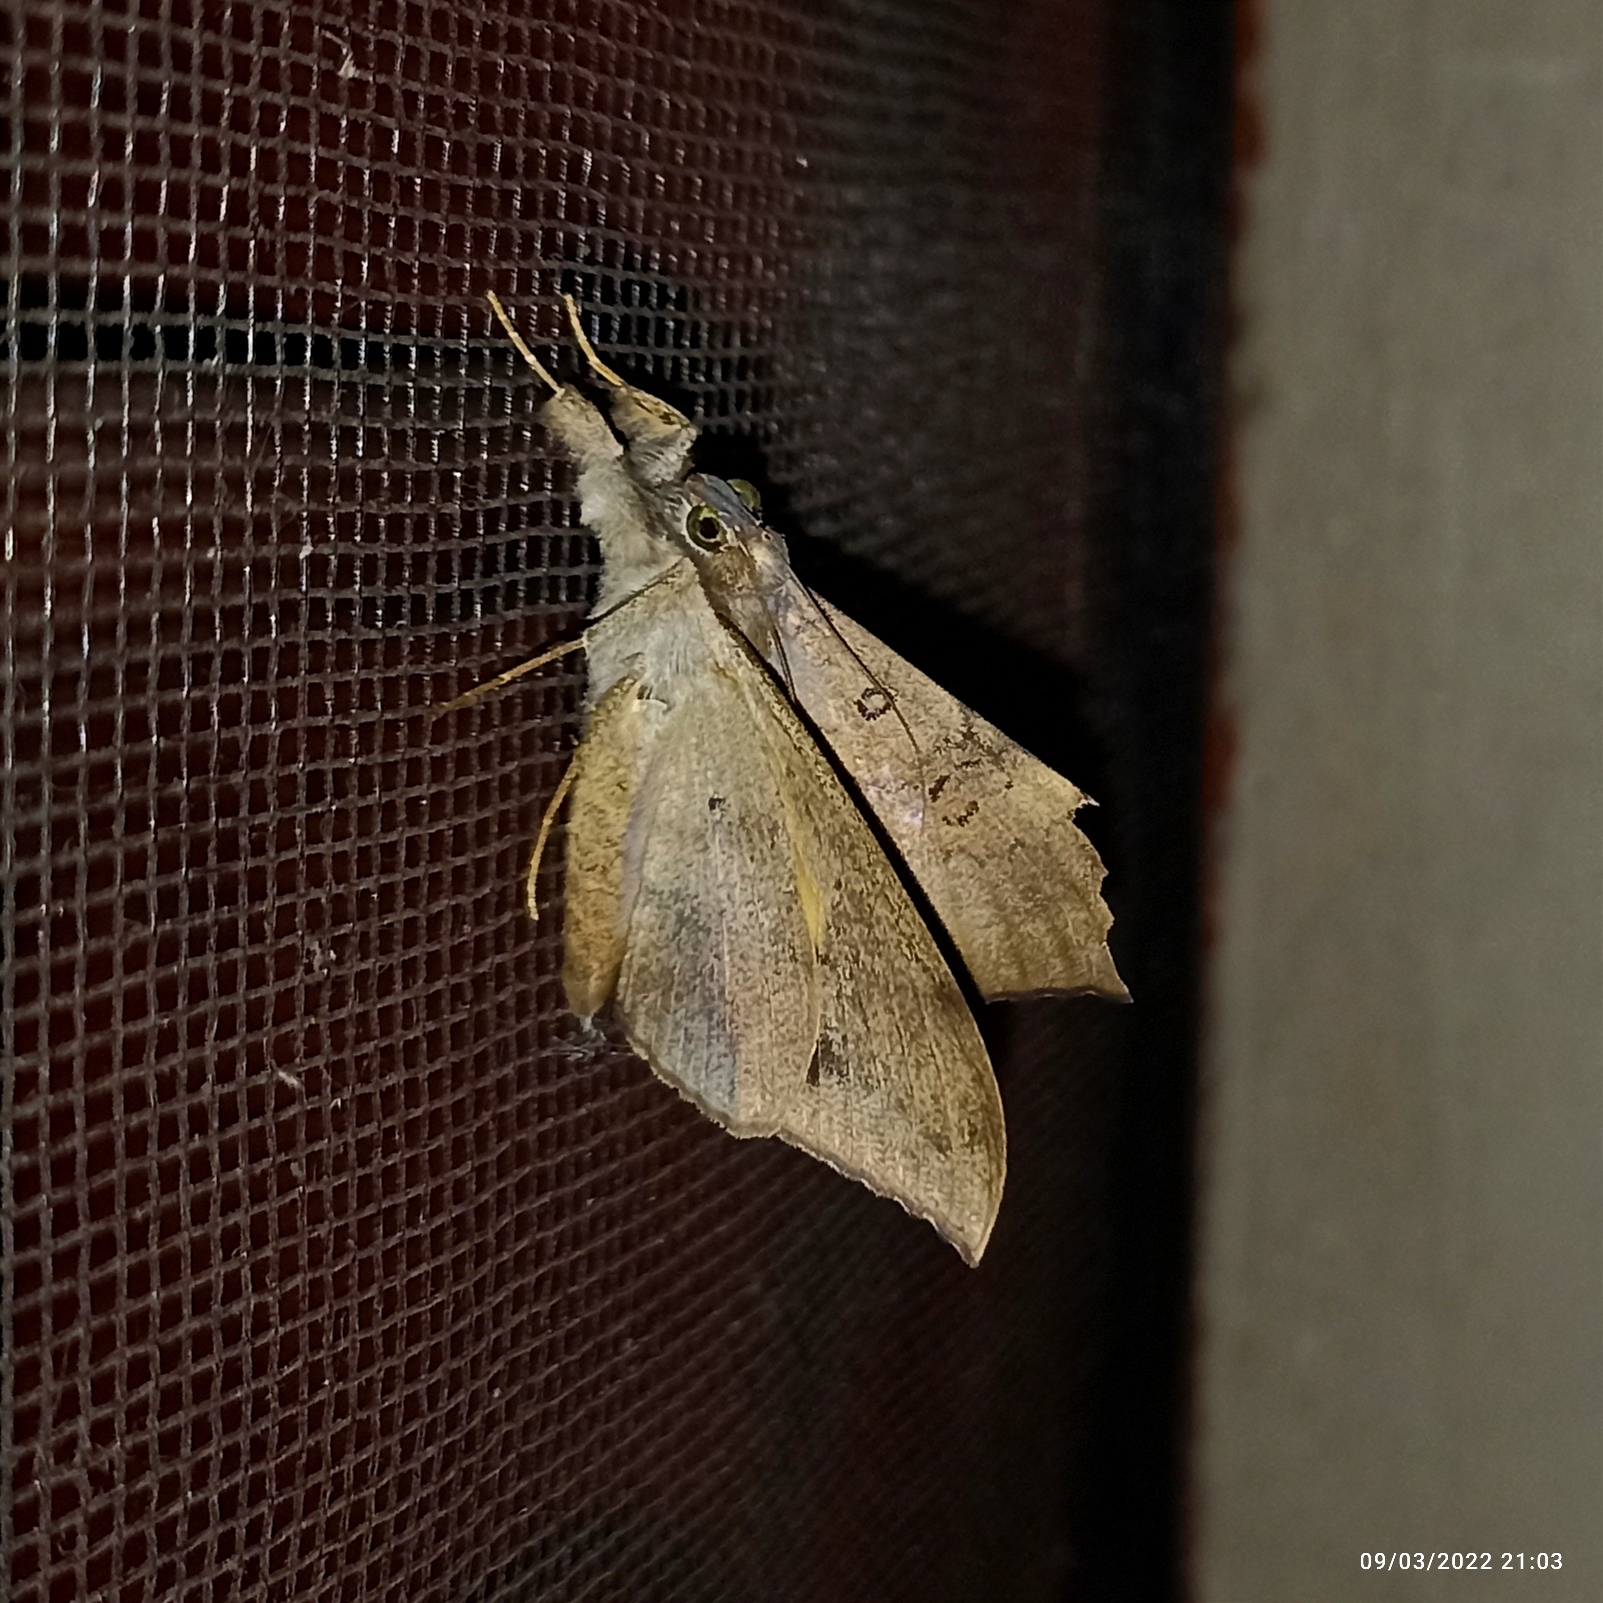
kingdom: Animalia
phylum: Arthropoda
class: Insecta
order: Lepidoptera
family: Erebidae
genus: Oxyodes
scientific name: Oxyodes scrobiculata
